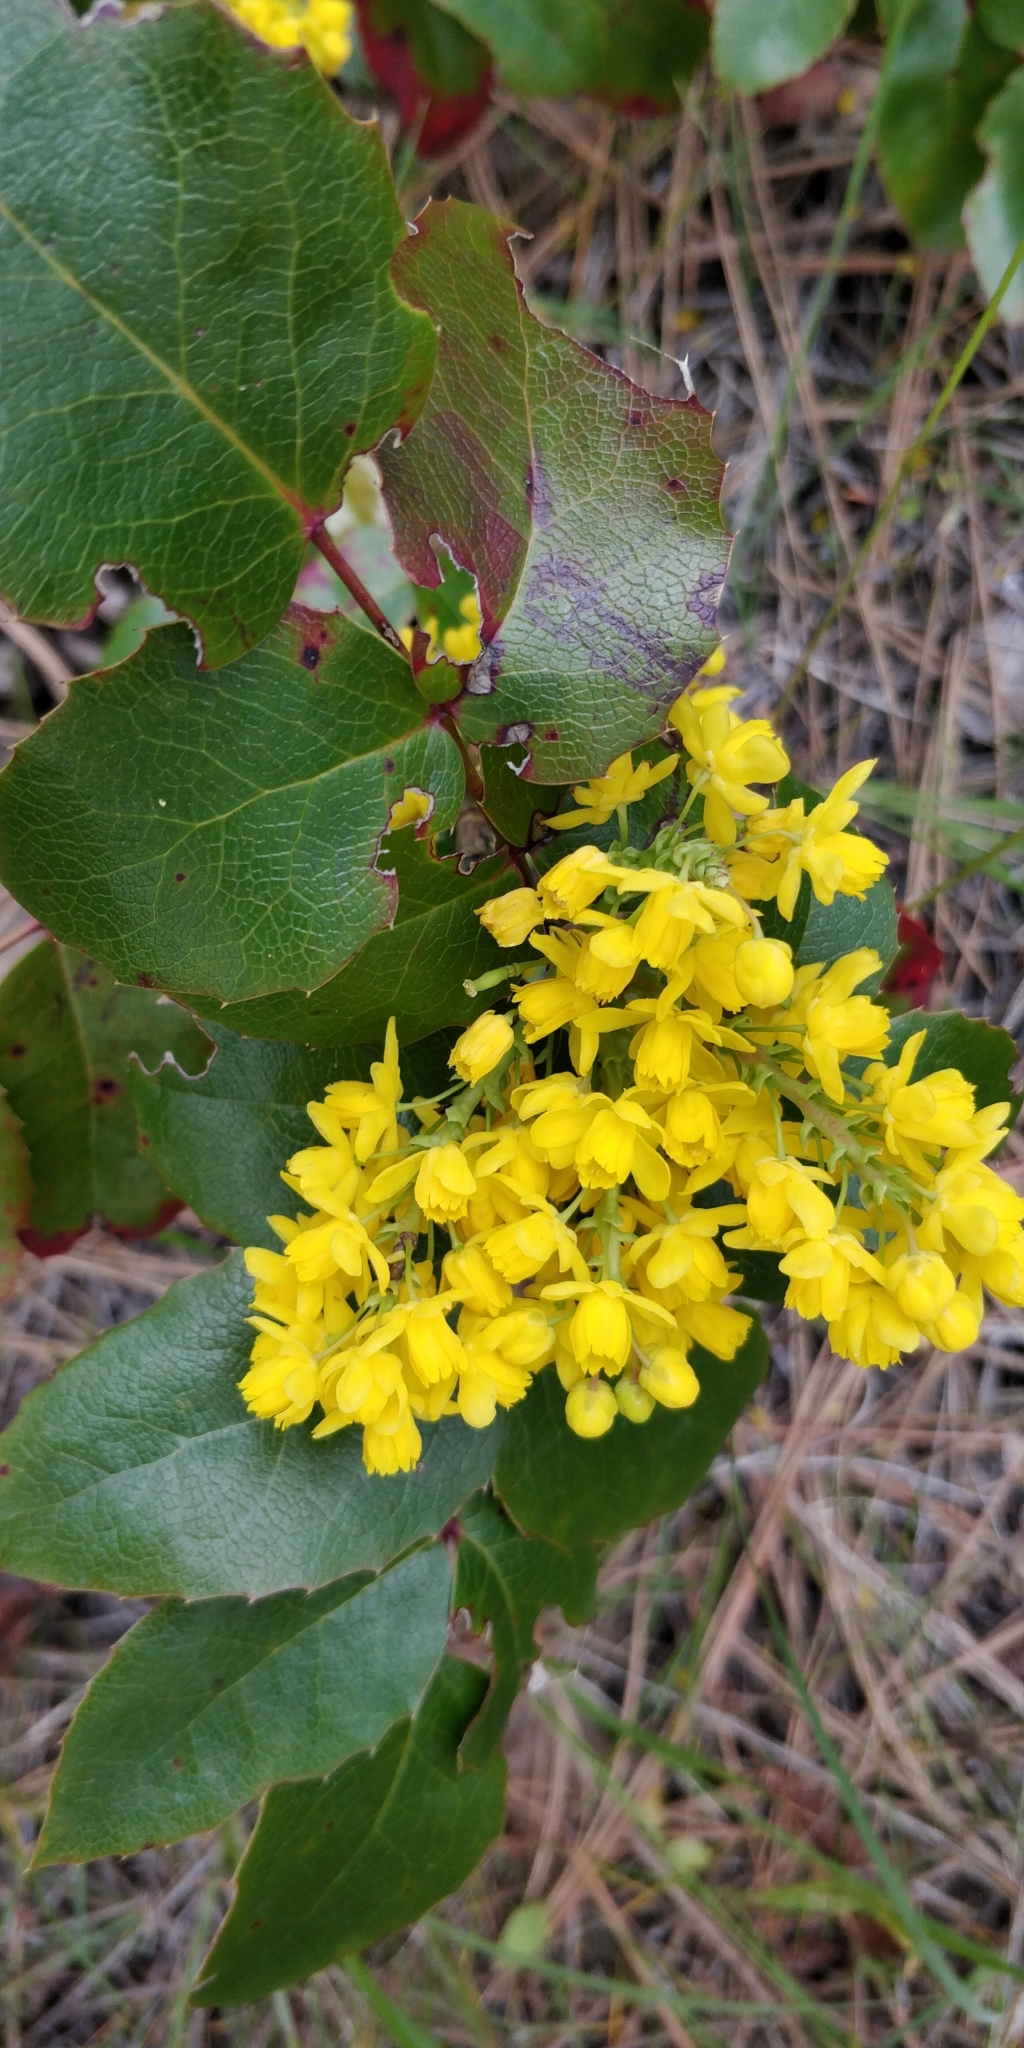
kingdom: Plantae
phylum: Tracheophyta
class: Magnoliopsida
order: Ranunculales
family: Berberidaceae
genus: Mahonia
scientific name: Mahonia aquifolium
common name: Oregon-grape
